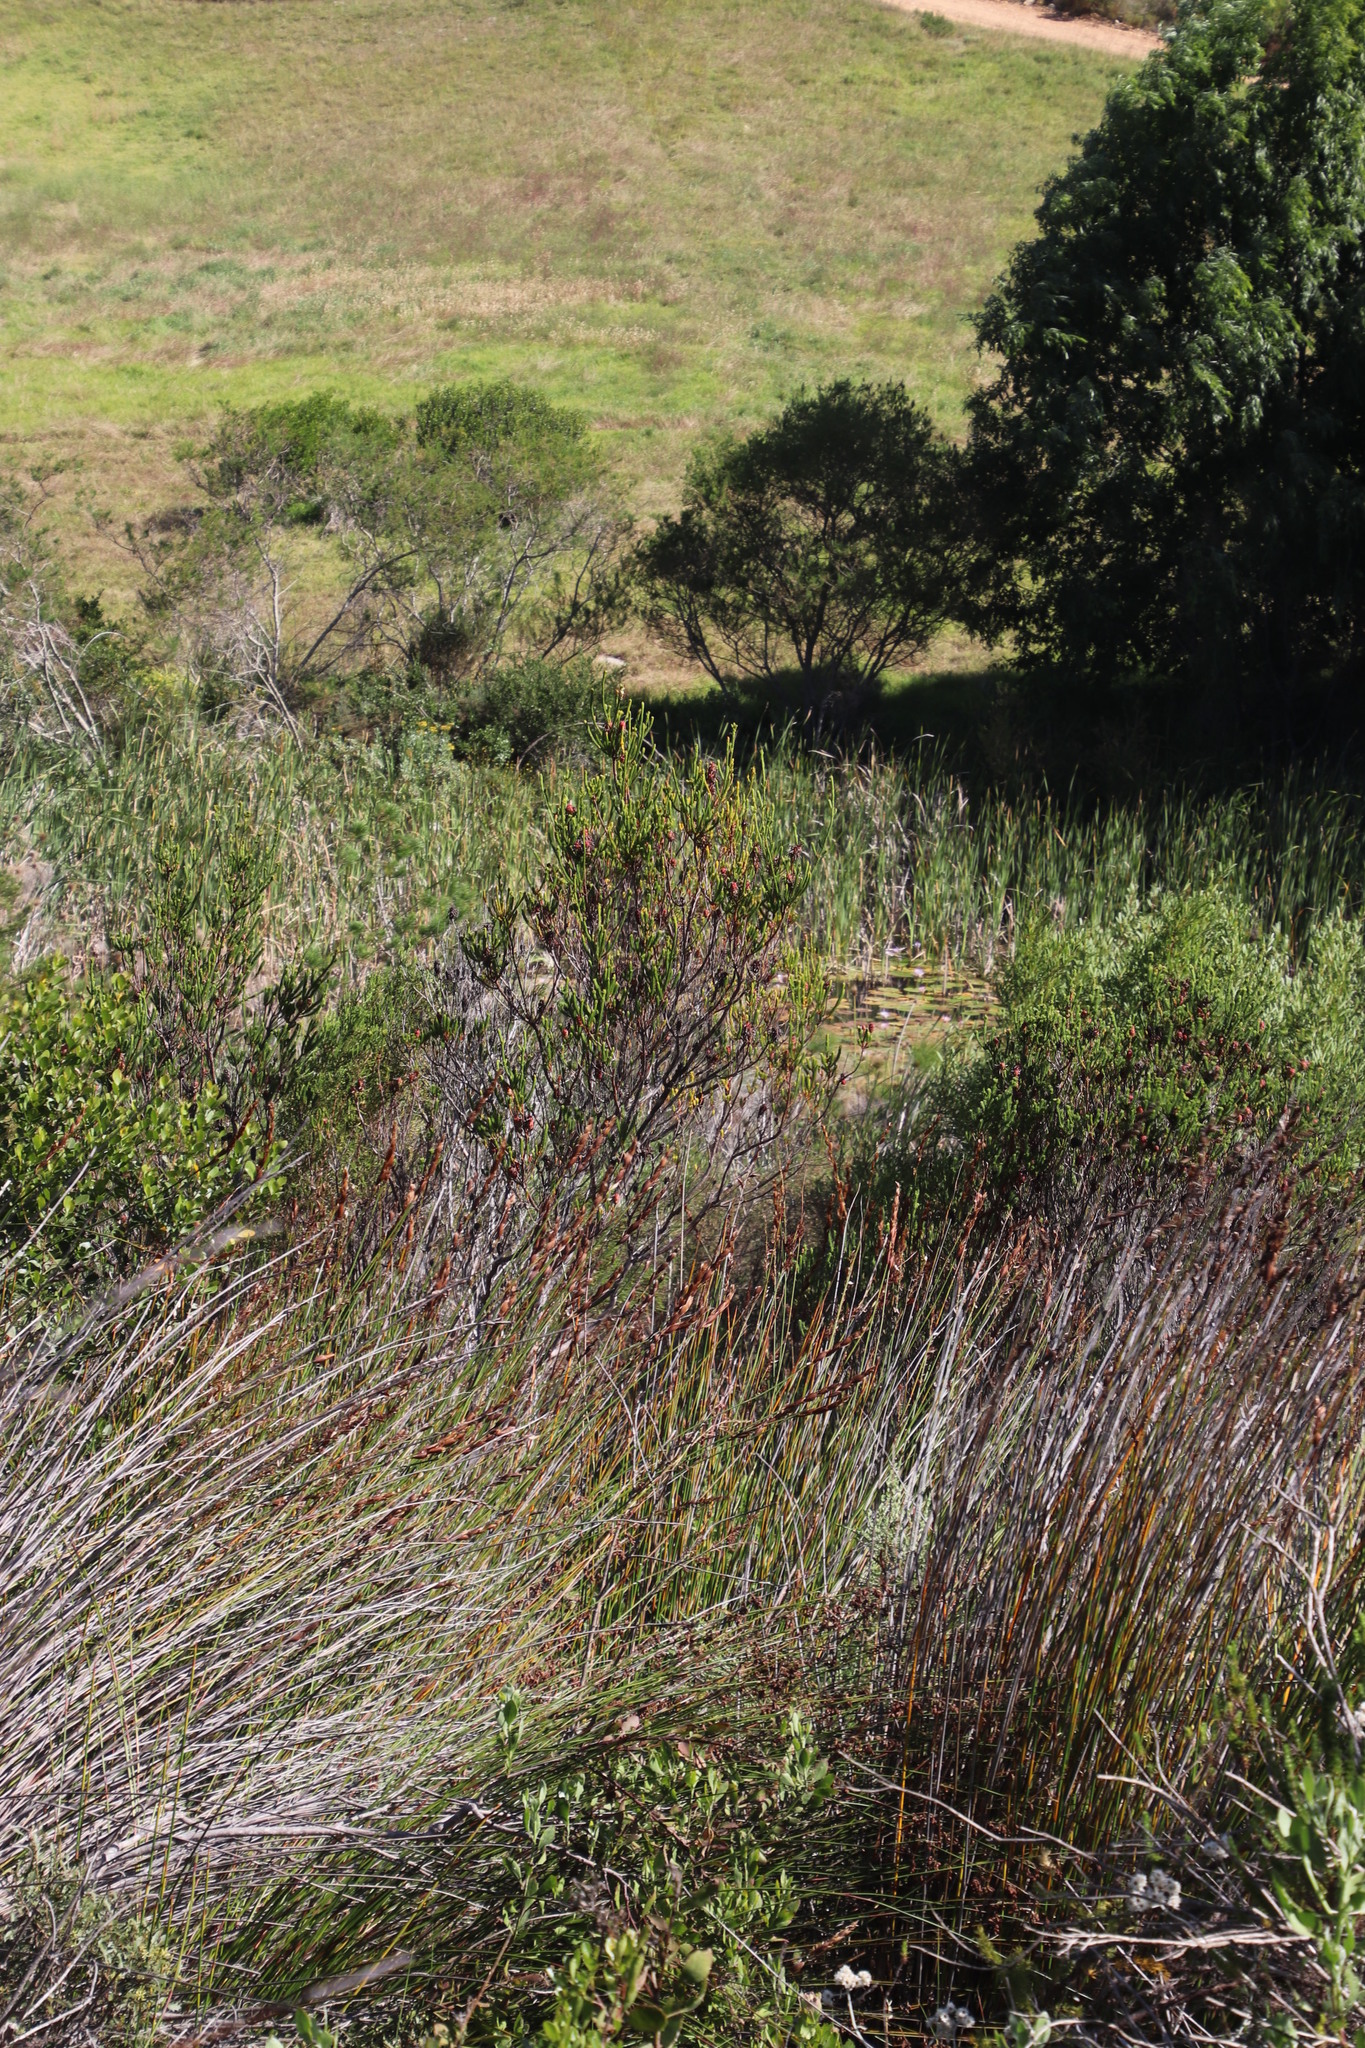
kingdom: Plantae
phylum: Tracheophyta
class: Magnoliopsida
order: Ericales
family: Ericaceae
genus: Erica
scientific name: Erica sessiliflora
